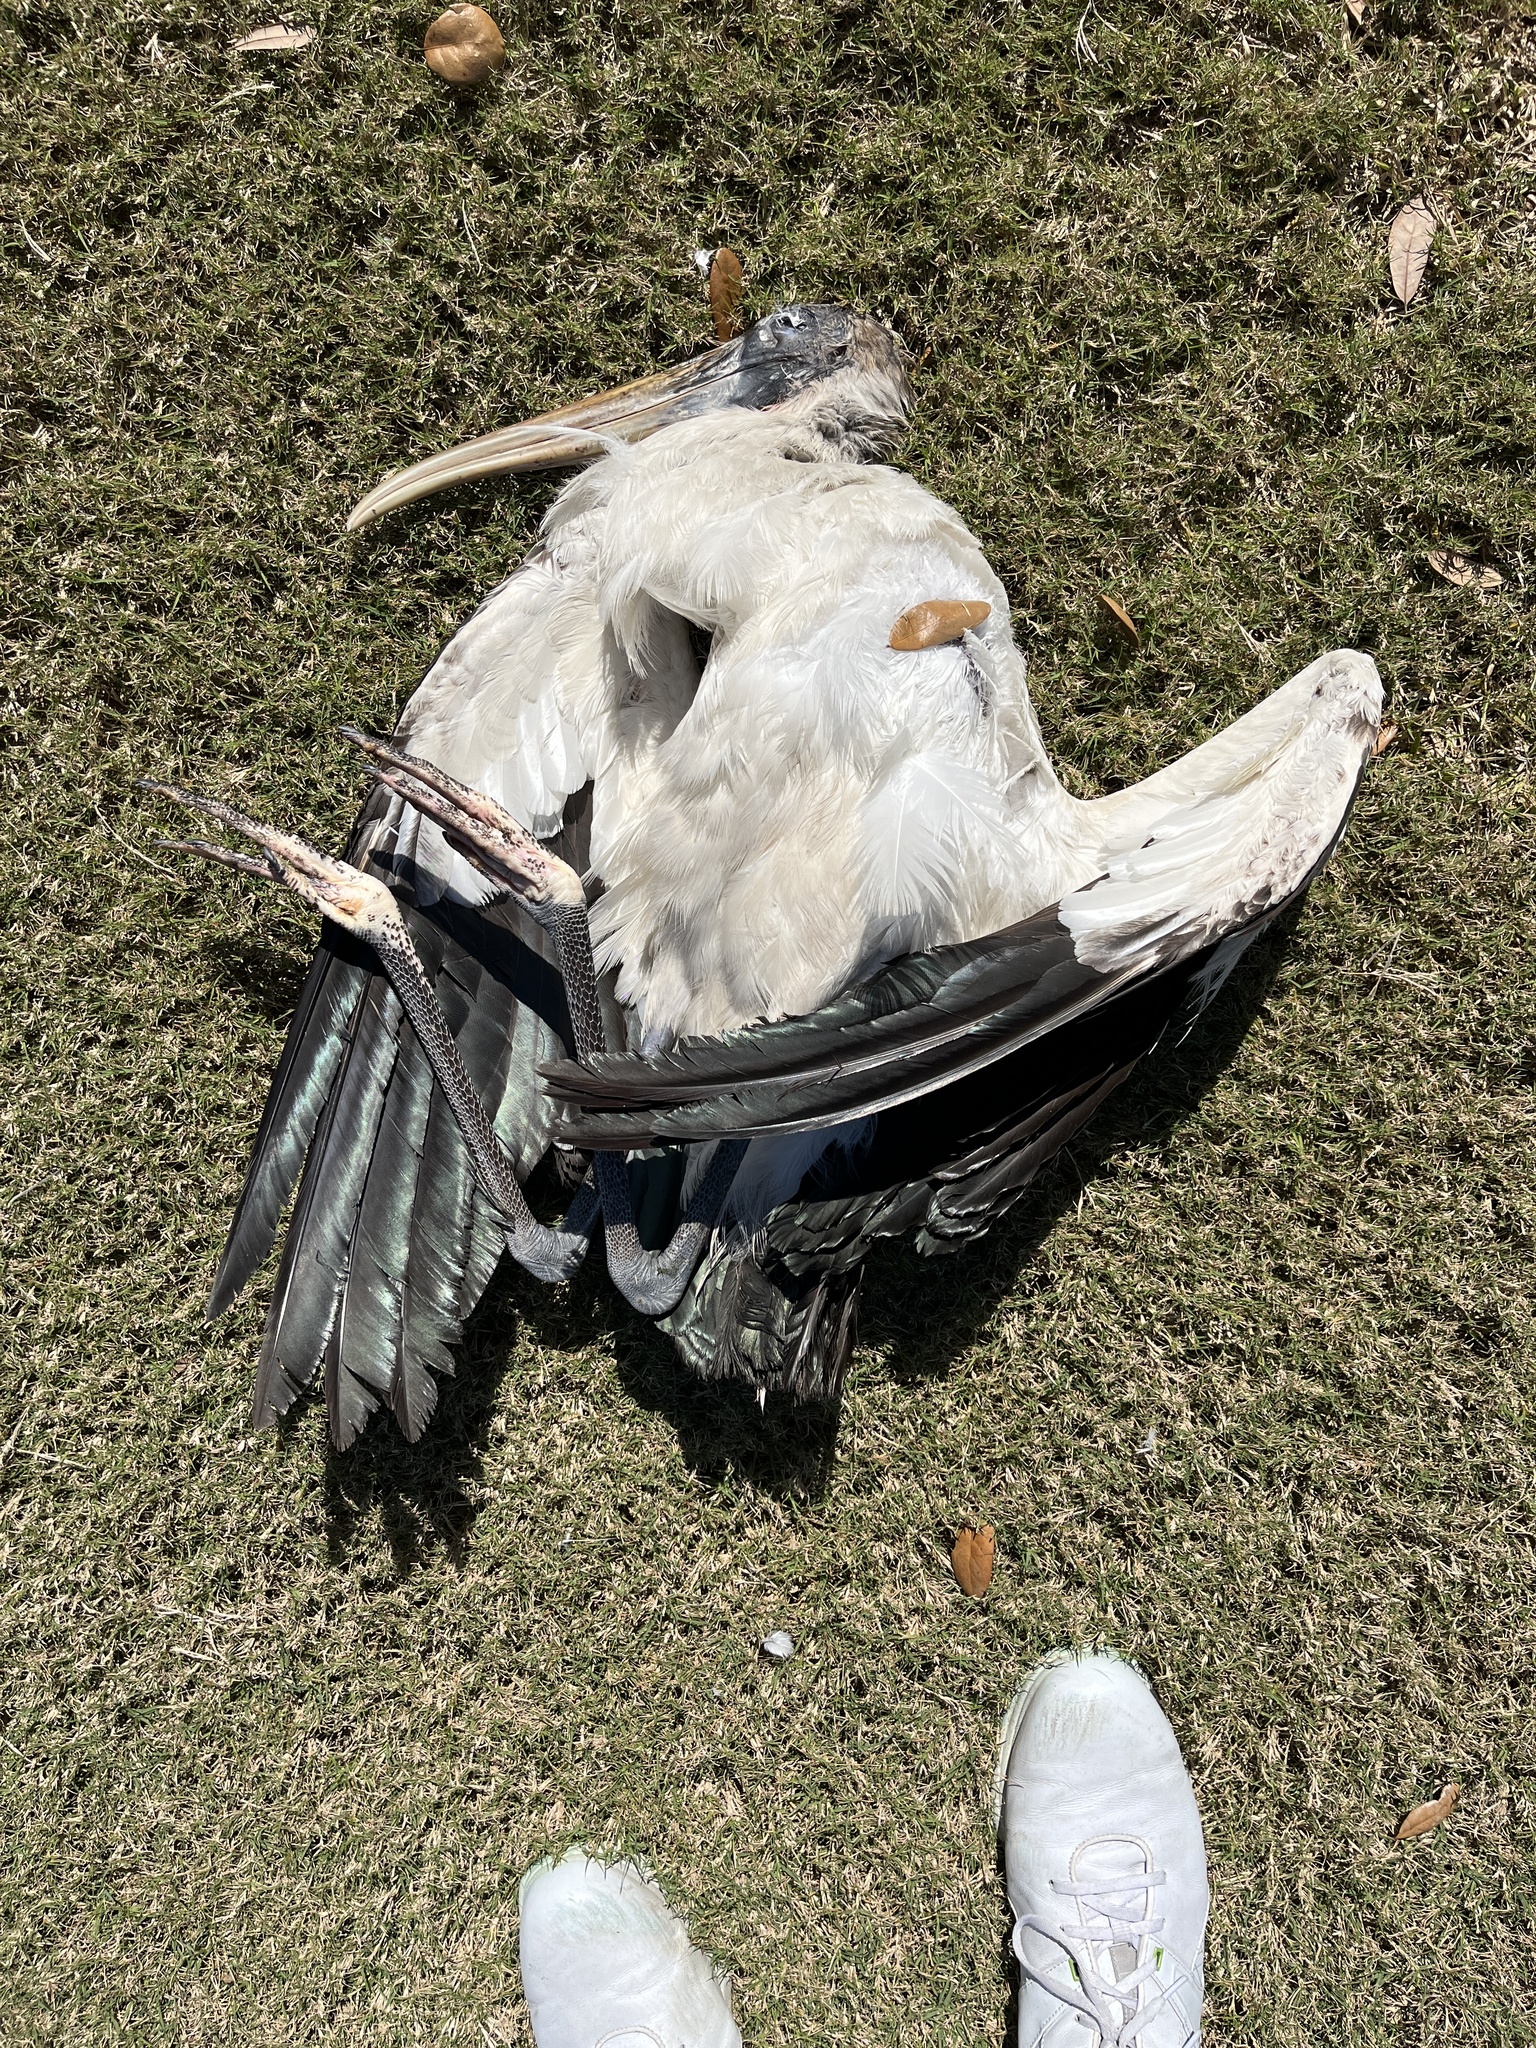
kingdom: Animalia
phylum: Chordata
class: Aves
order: Ciconiiformes
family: Ciconiidae
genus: Mycteria
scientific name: Mycteria americana
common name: Wood stork
